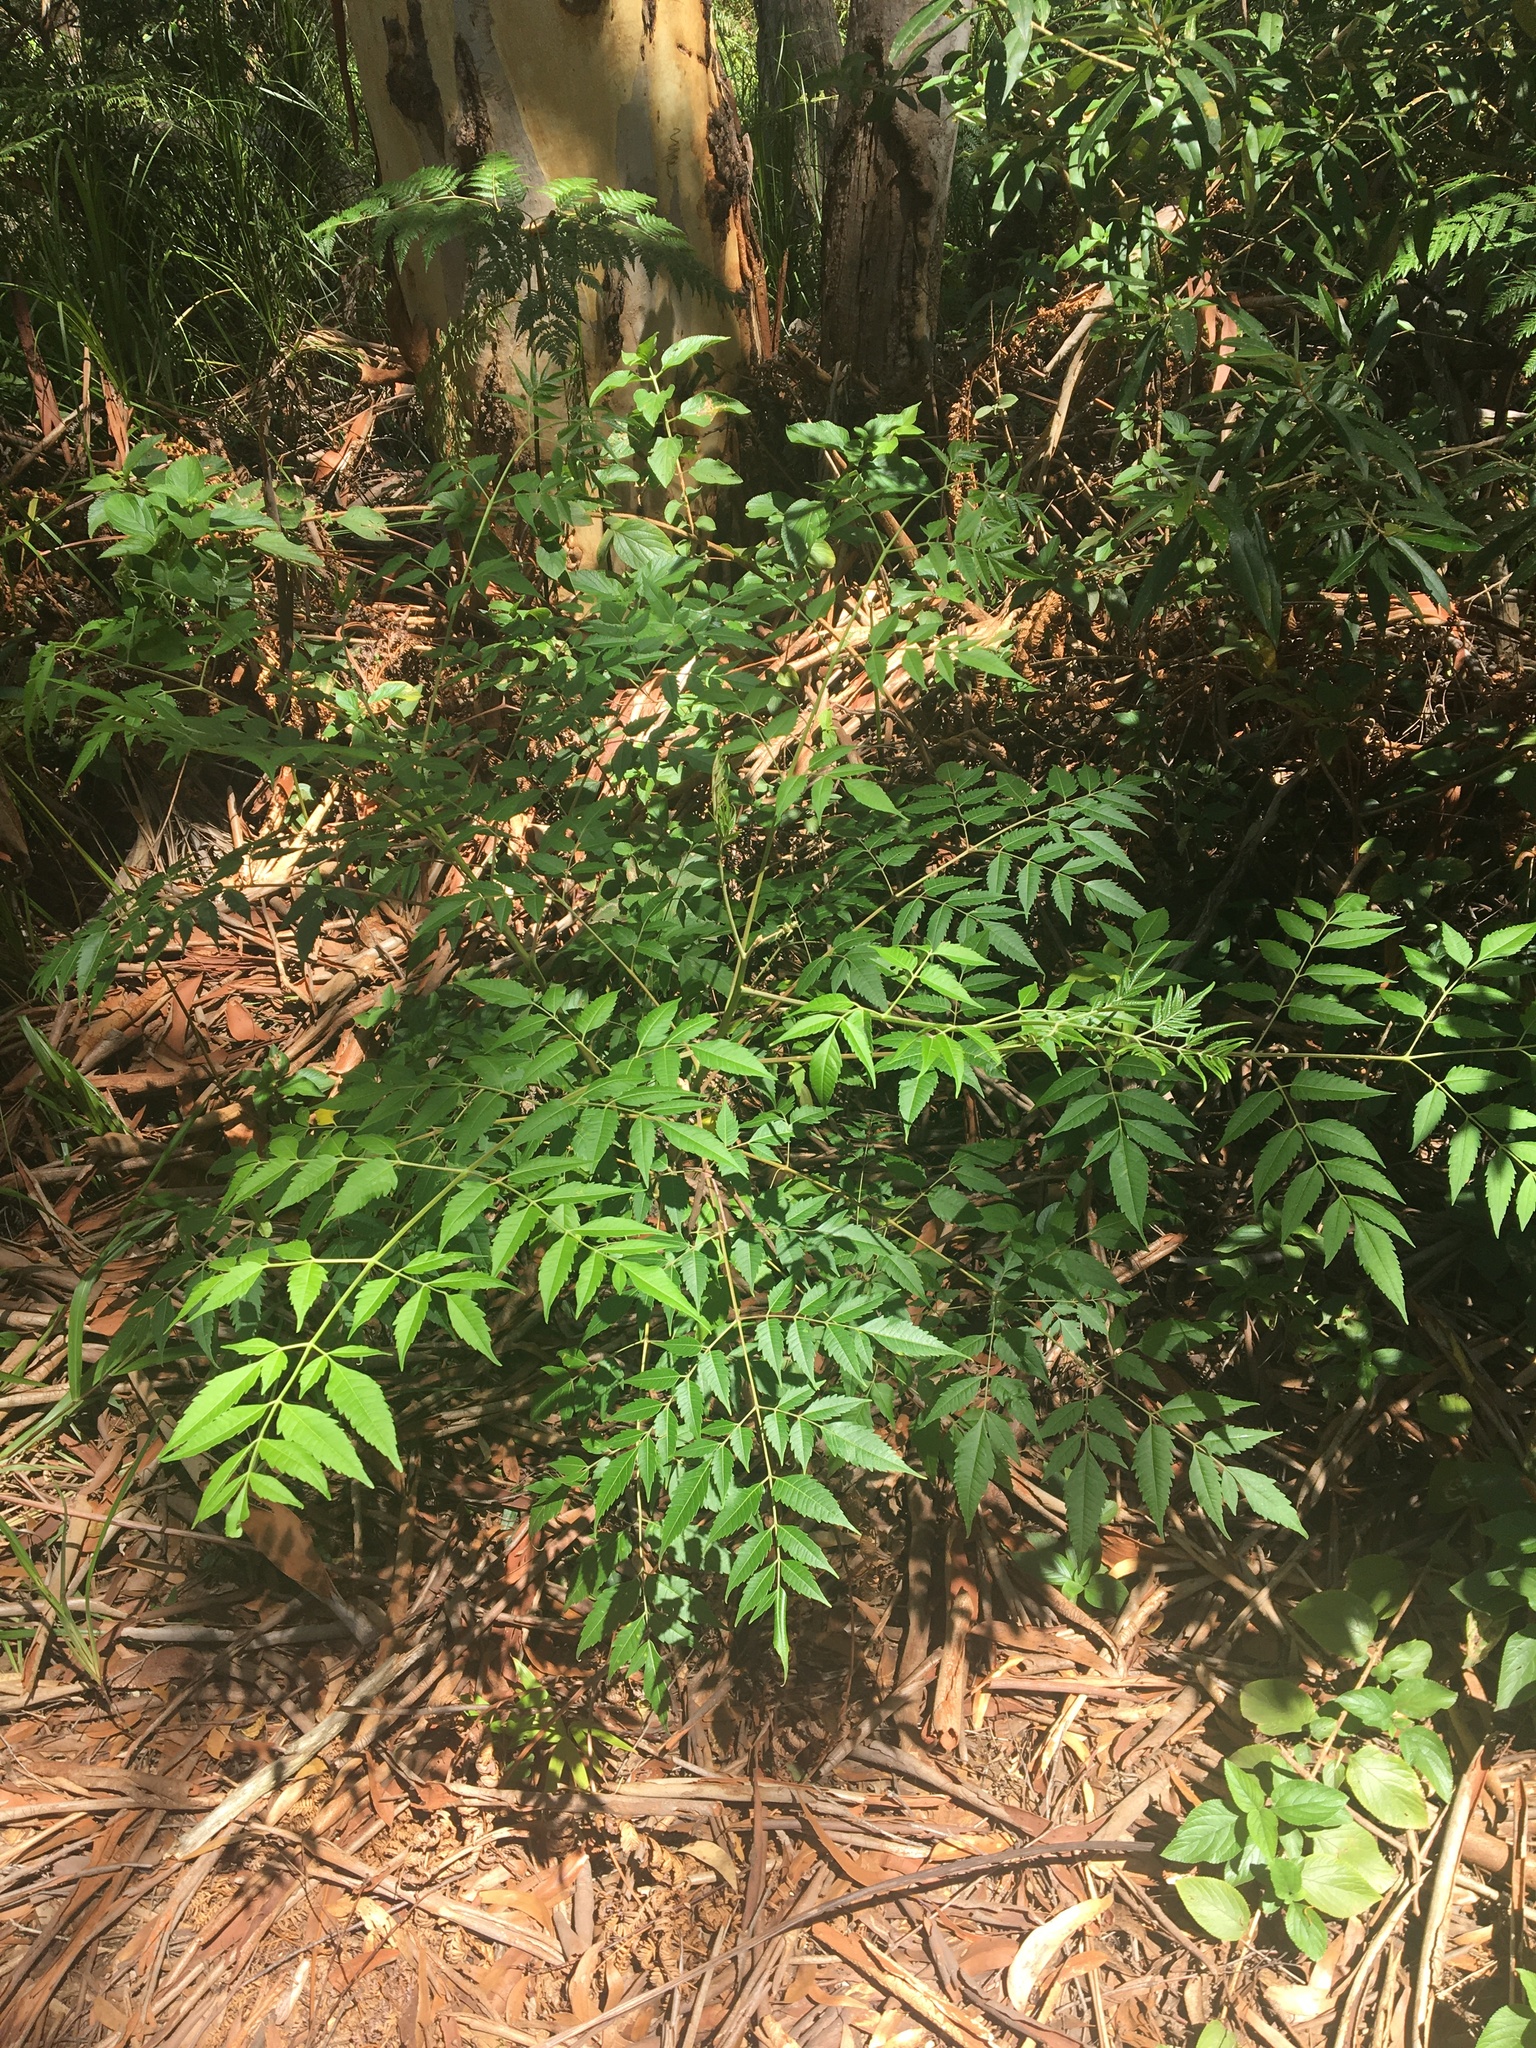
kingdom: Plantae
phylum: Tracheophyta
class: Magnoliopsida
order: Sapindales
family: Meliaceae
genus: Melia
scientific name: Melia azedarach
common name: Chinaberrytree
